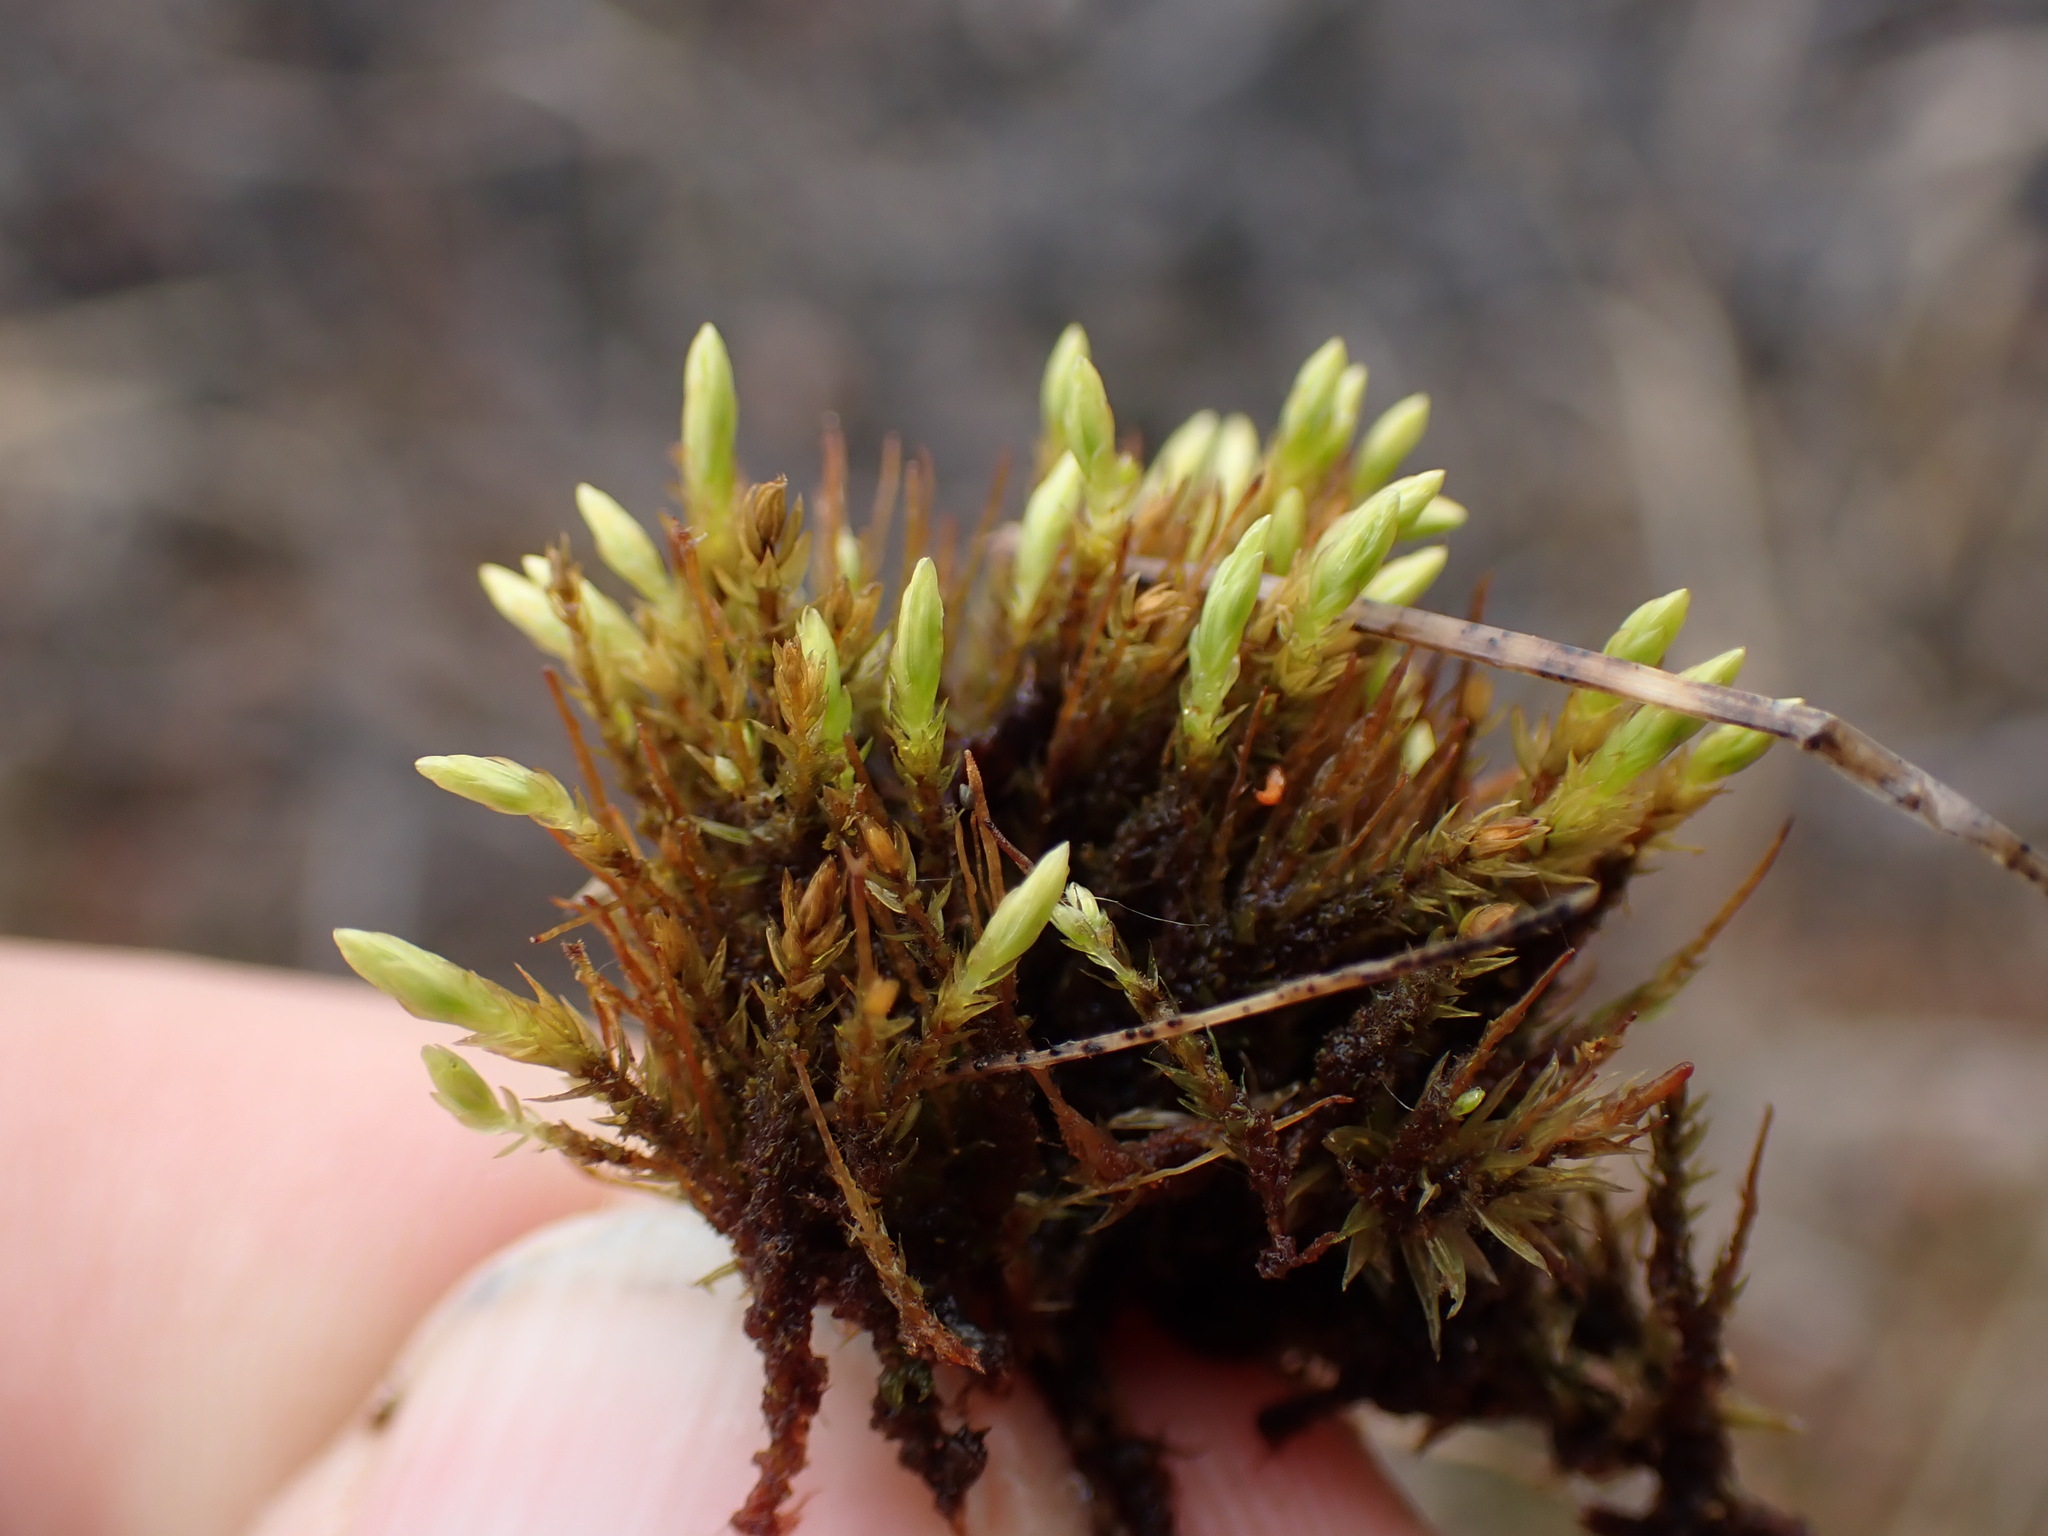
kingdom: Plantae
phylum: Bryophyta
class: Bryopsida
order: Aulacomniales
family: Aulacomniaceae
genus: Aulacomnium
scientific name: Aulacomnium palustre
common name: Bog groove-moss
